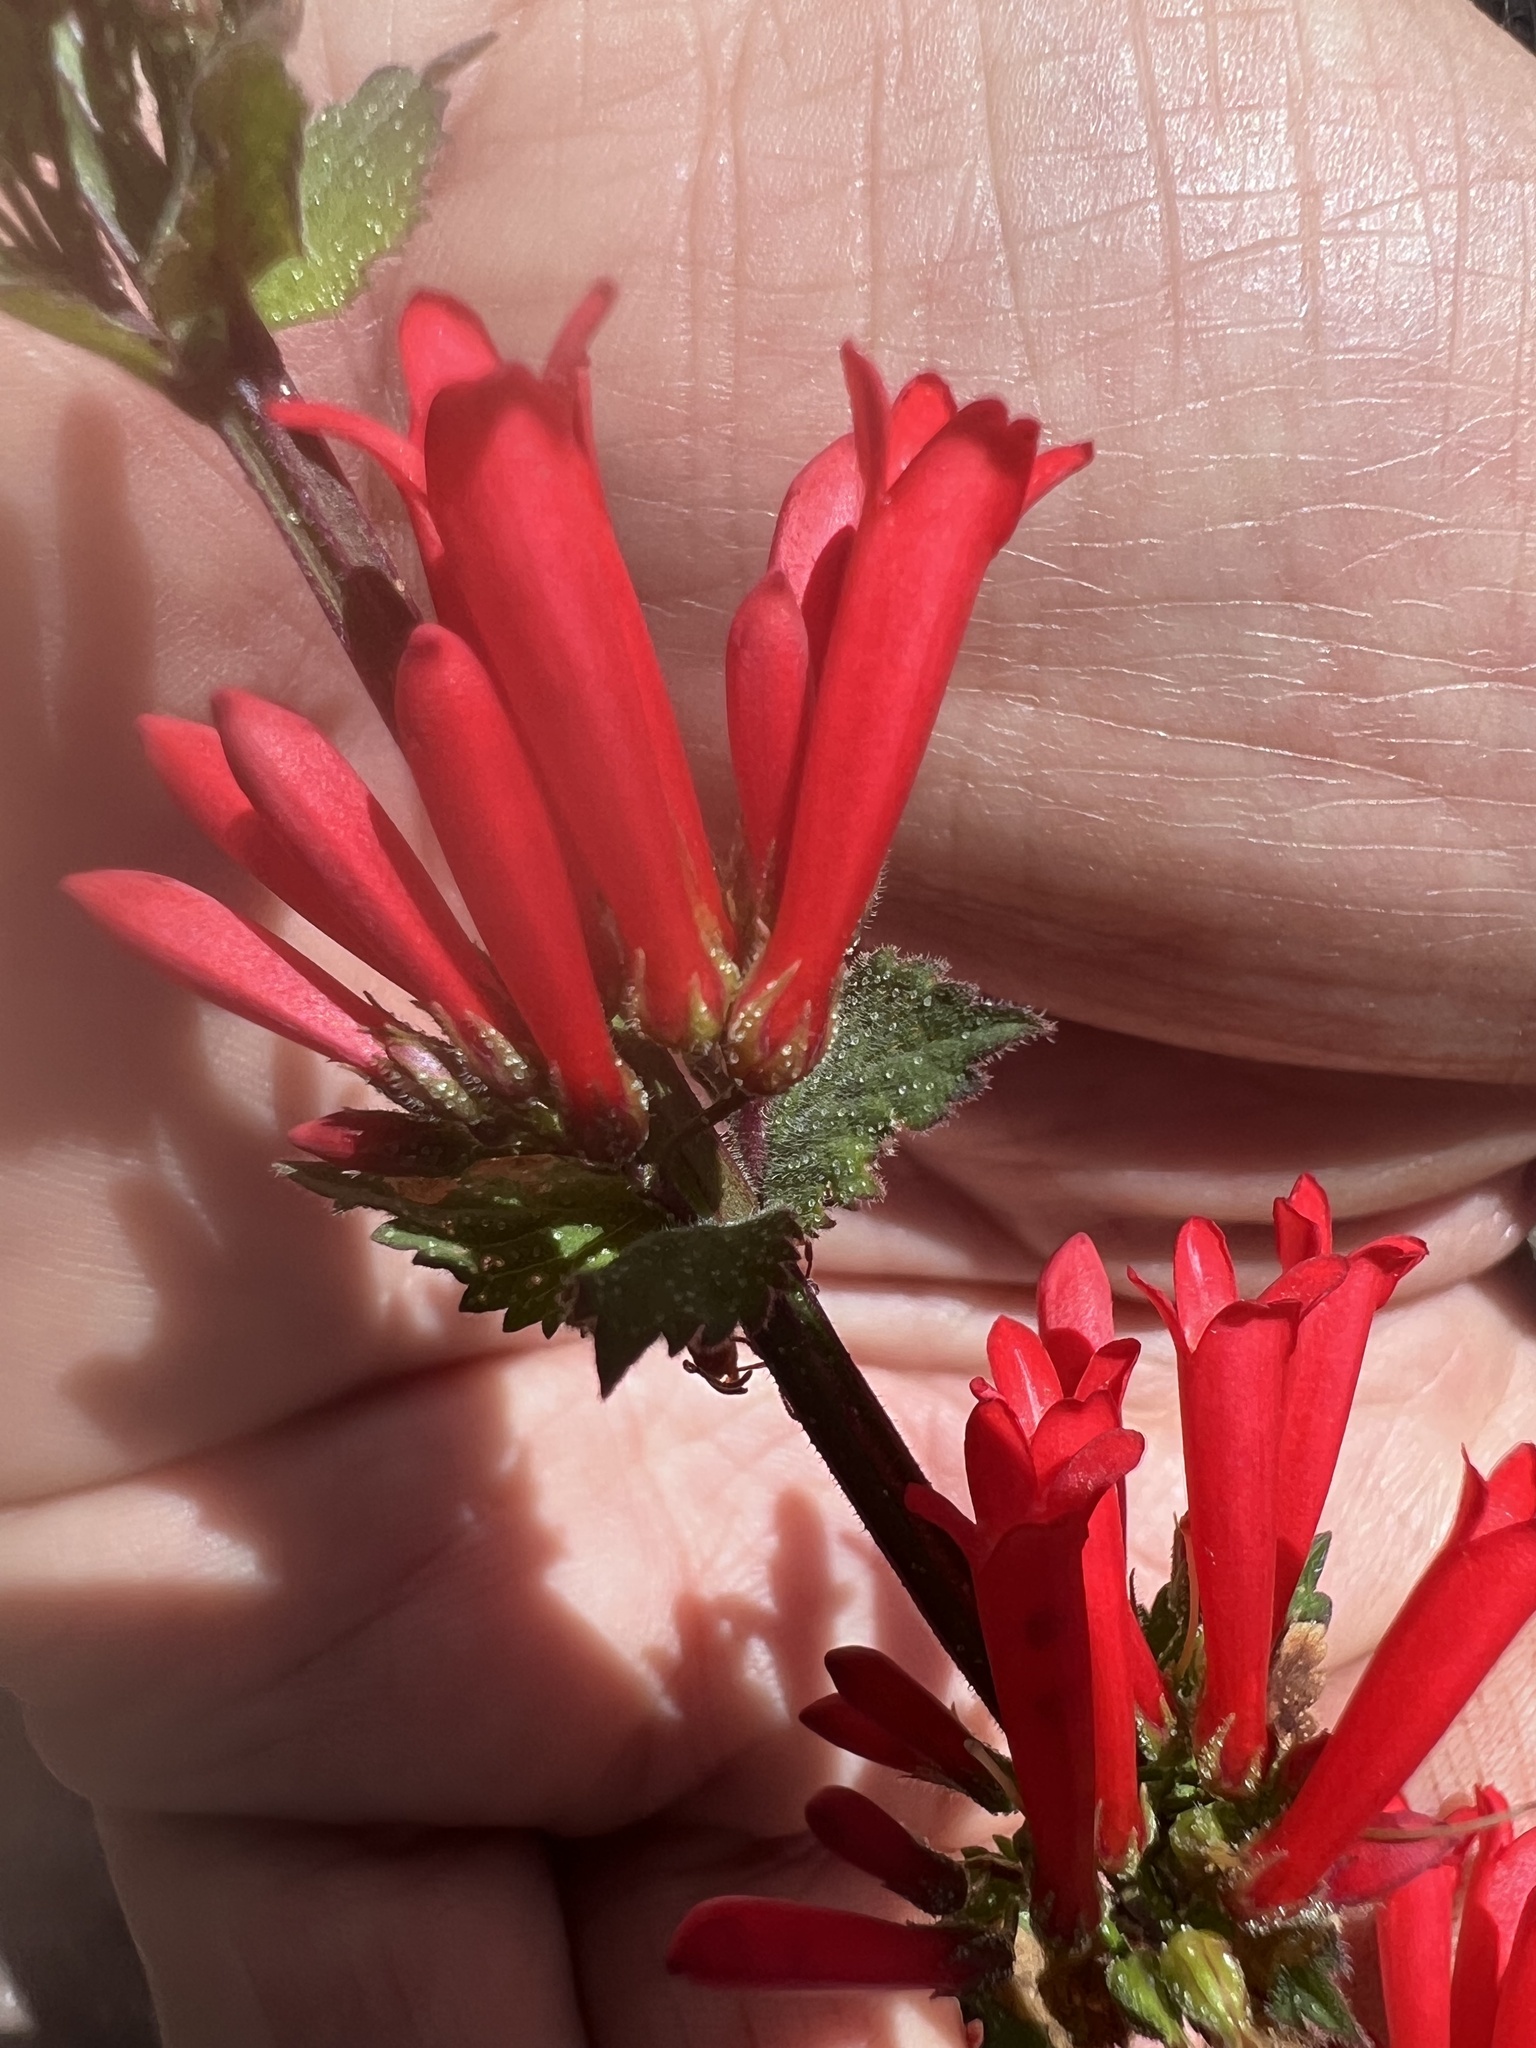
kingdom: Plantae
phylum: Tracheophyta
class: Magnoliopsida
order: Lamiales
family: Plantaginaceae
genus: Russelia
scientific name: Russelia sarmentosa
